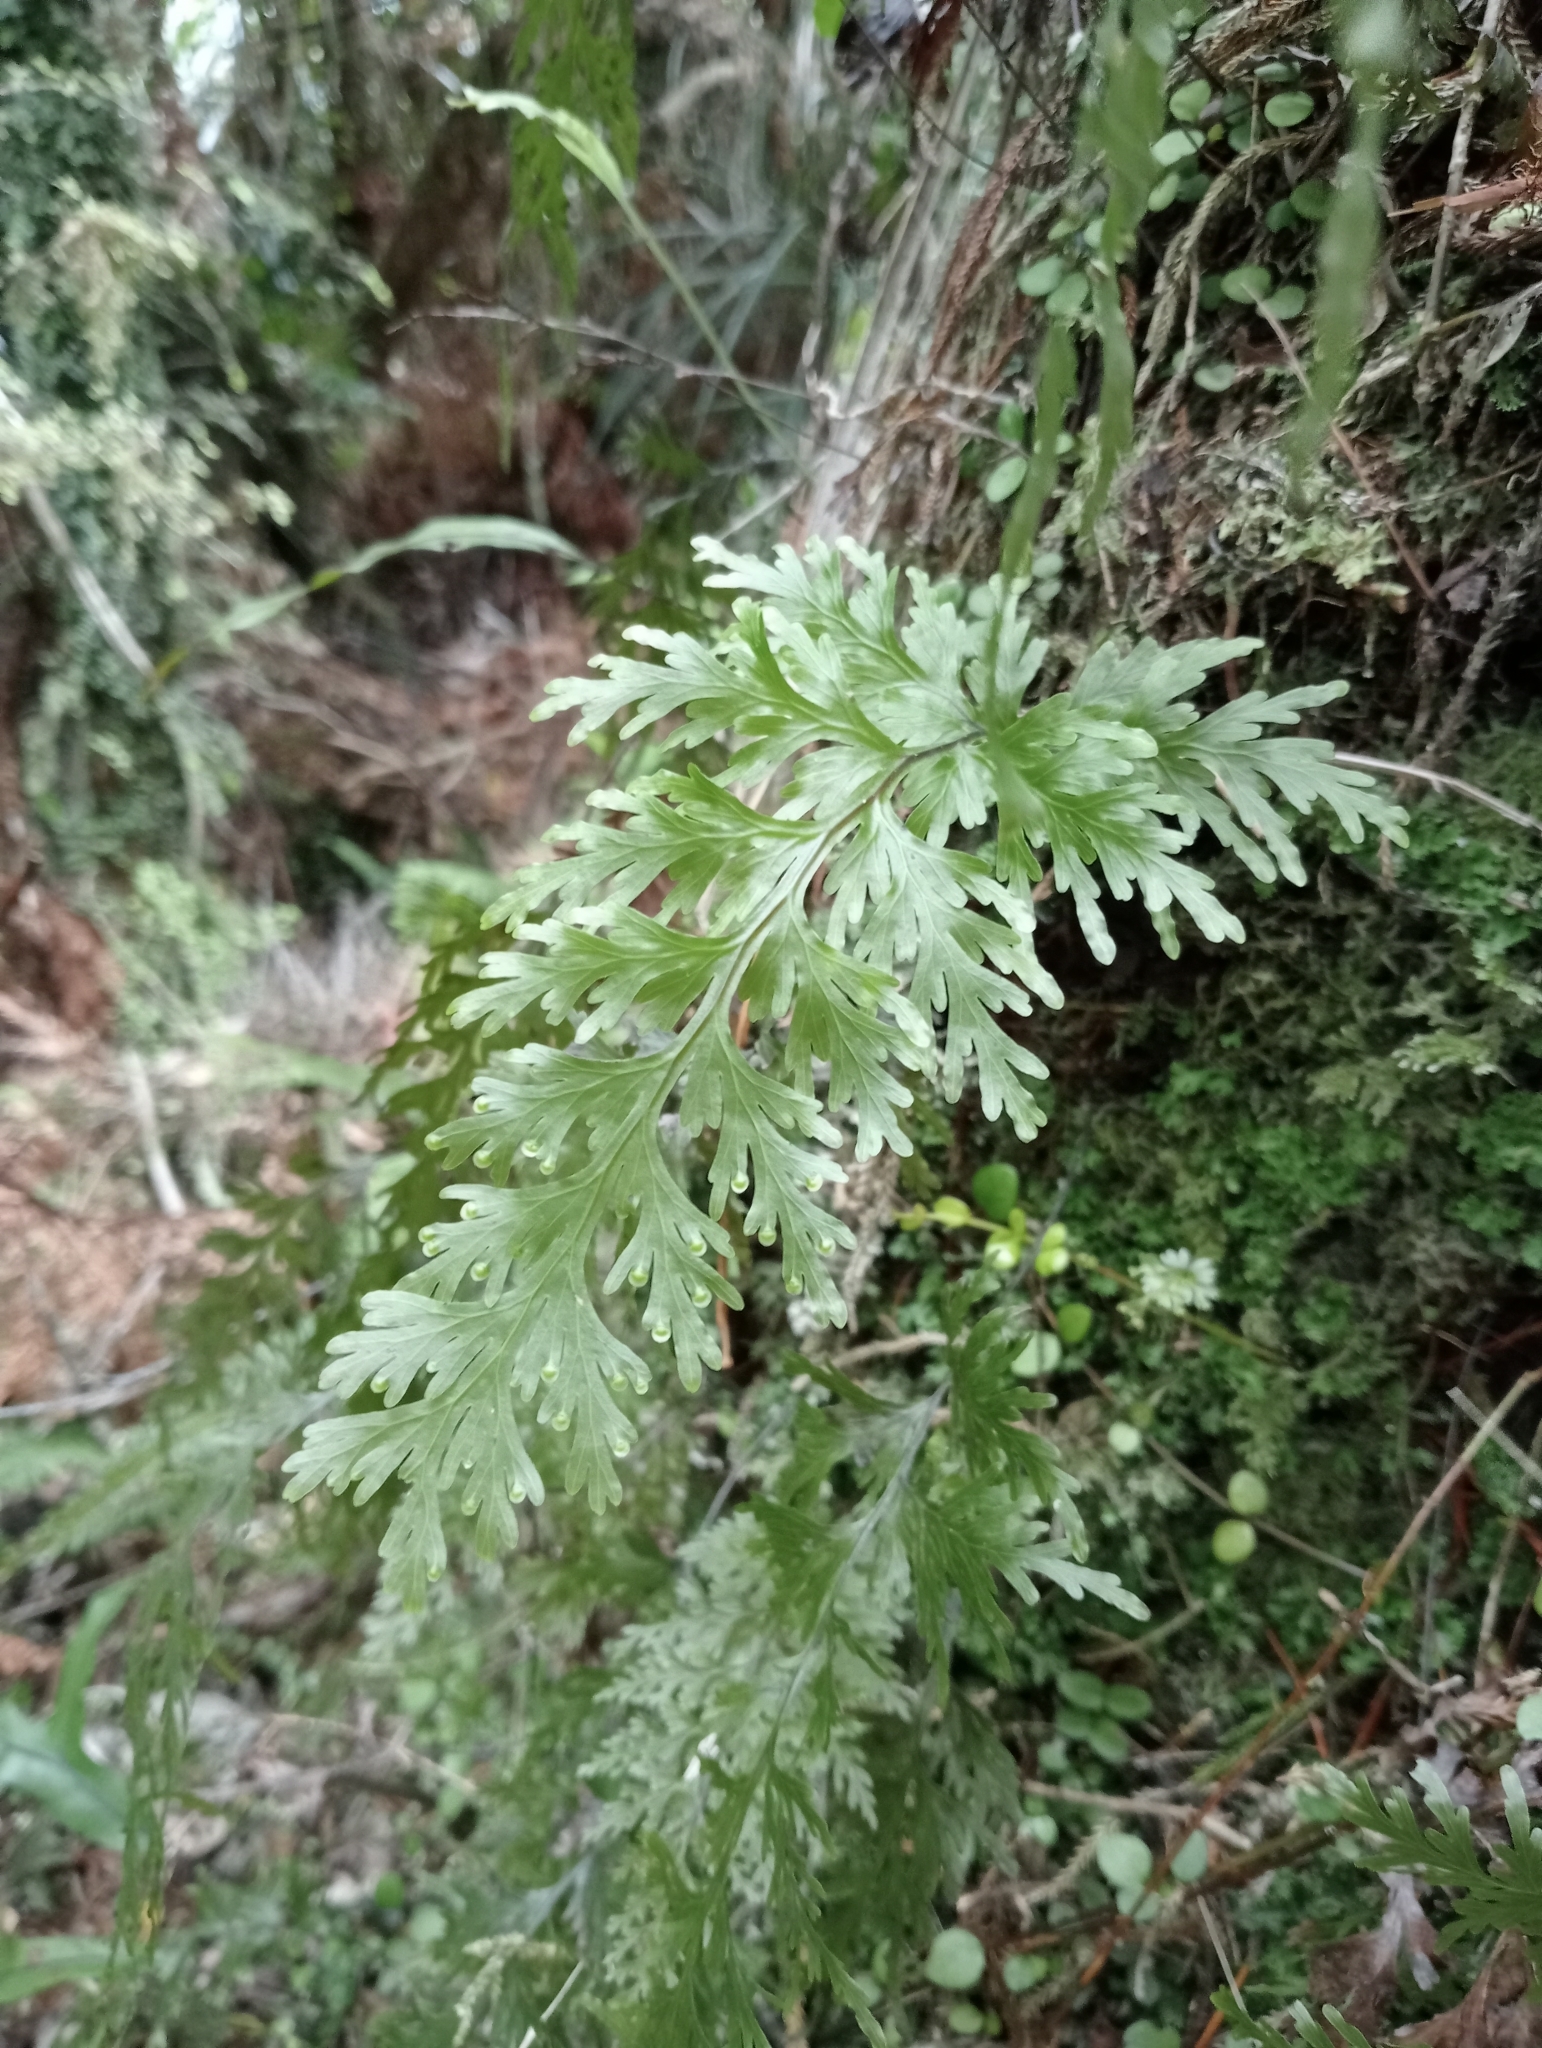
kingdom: Plantae
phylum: Tracheophyta
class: Polypodiopsida
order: Hymenophyllales
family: Hymenophyllaceae
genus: Hymenophyllum
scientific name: Hymenophyllum dilatatum
